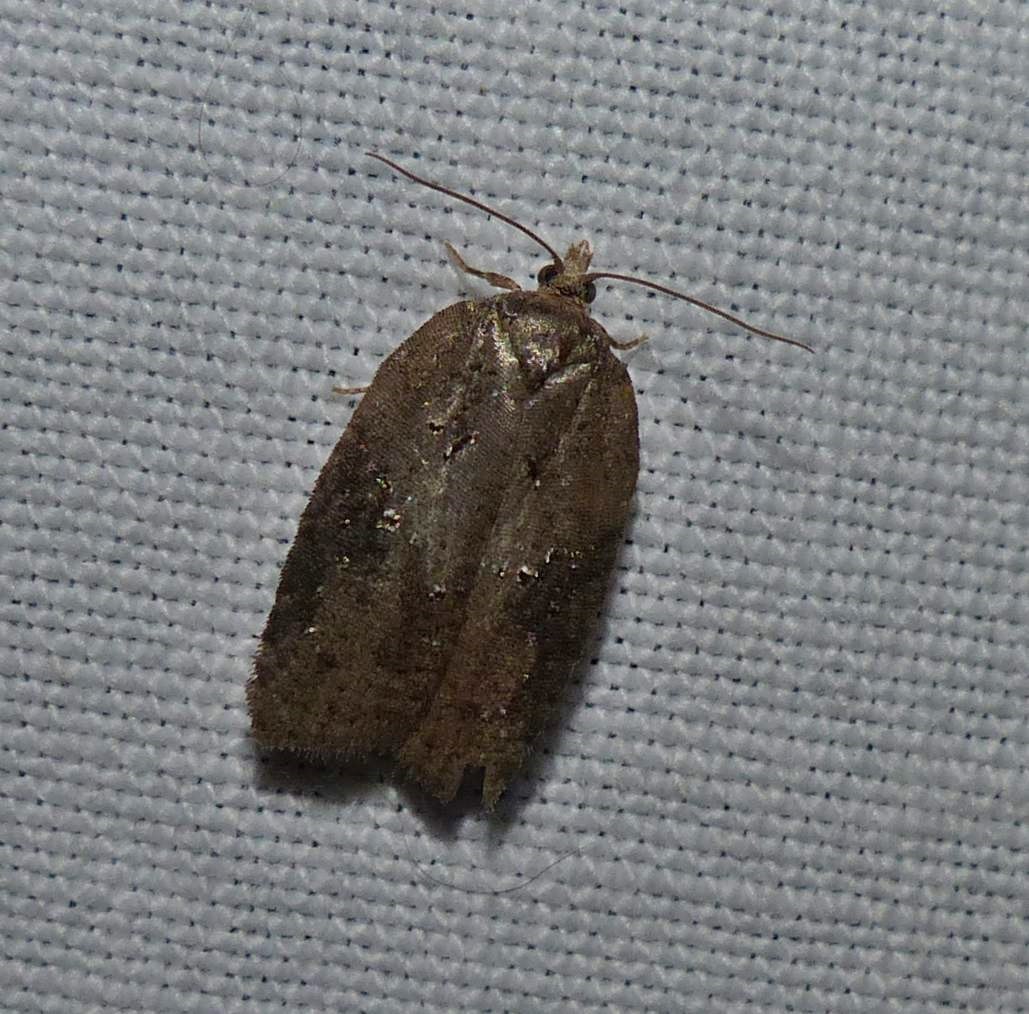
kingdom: Animalia
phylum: Arthropoda
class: Insecta
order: Lepidoptera
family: Tortricidae
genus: Acleris
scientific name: Acleris chalybeana
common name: Lesser maple leafroller
